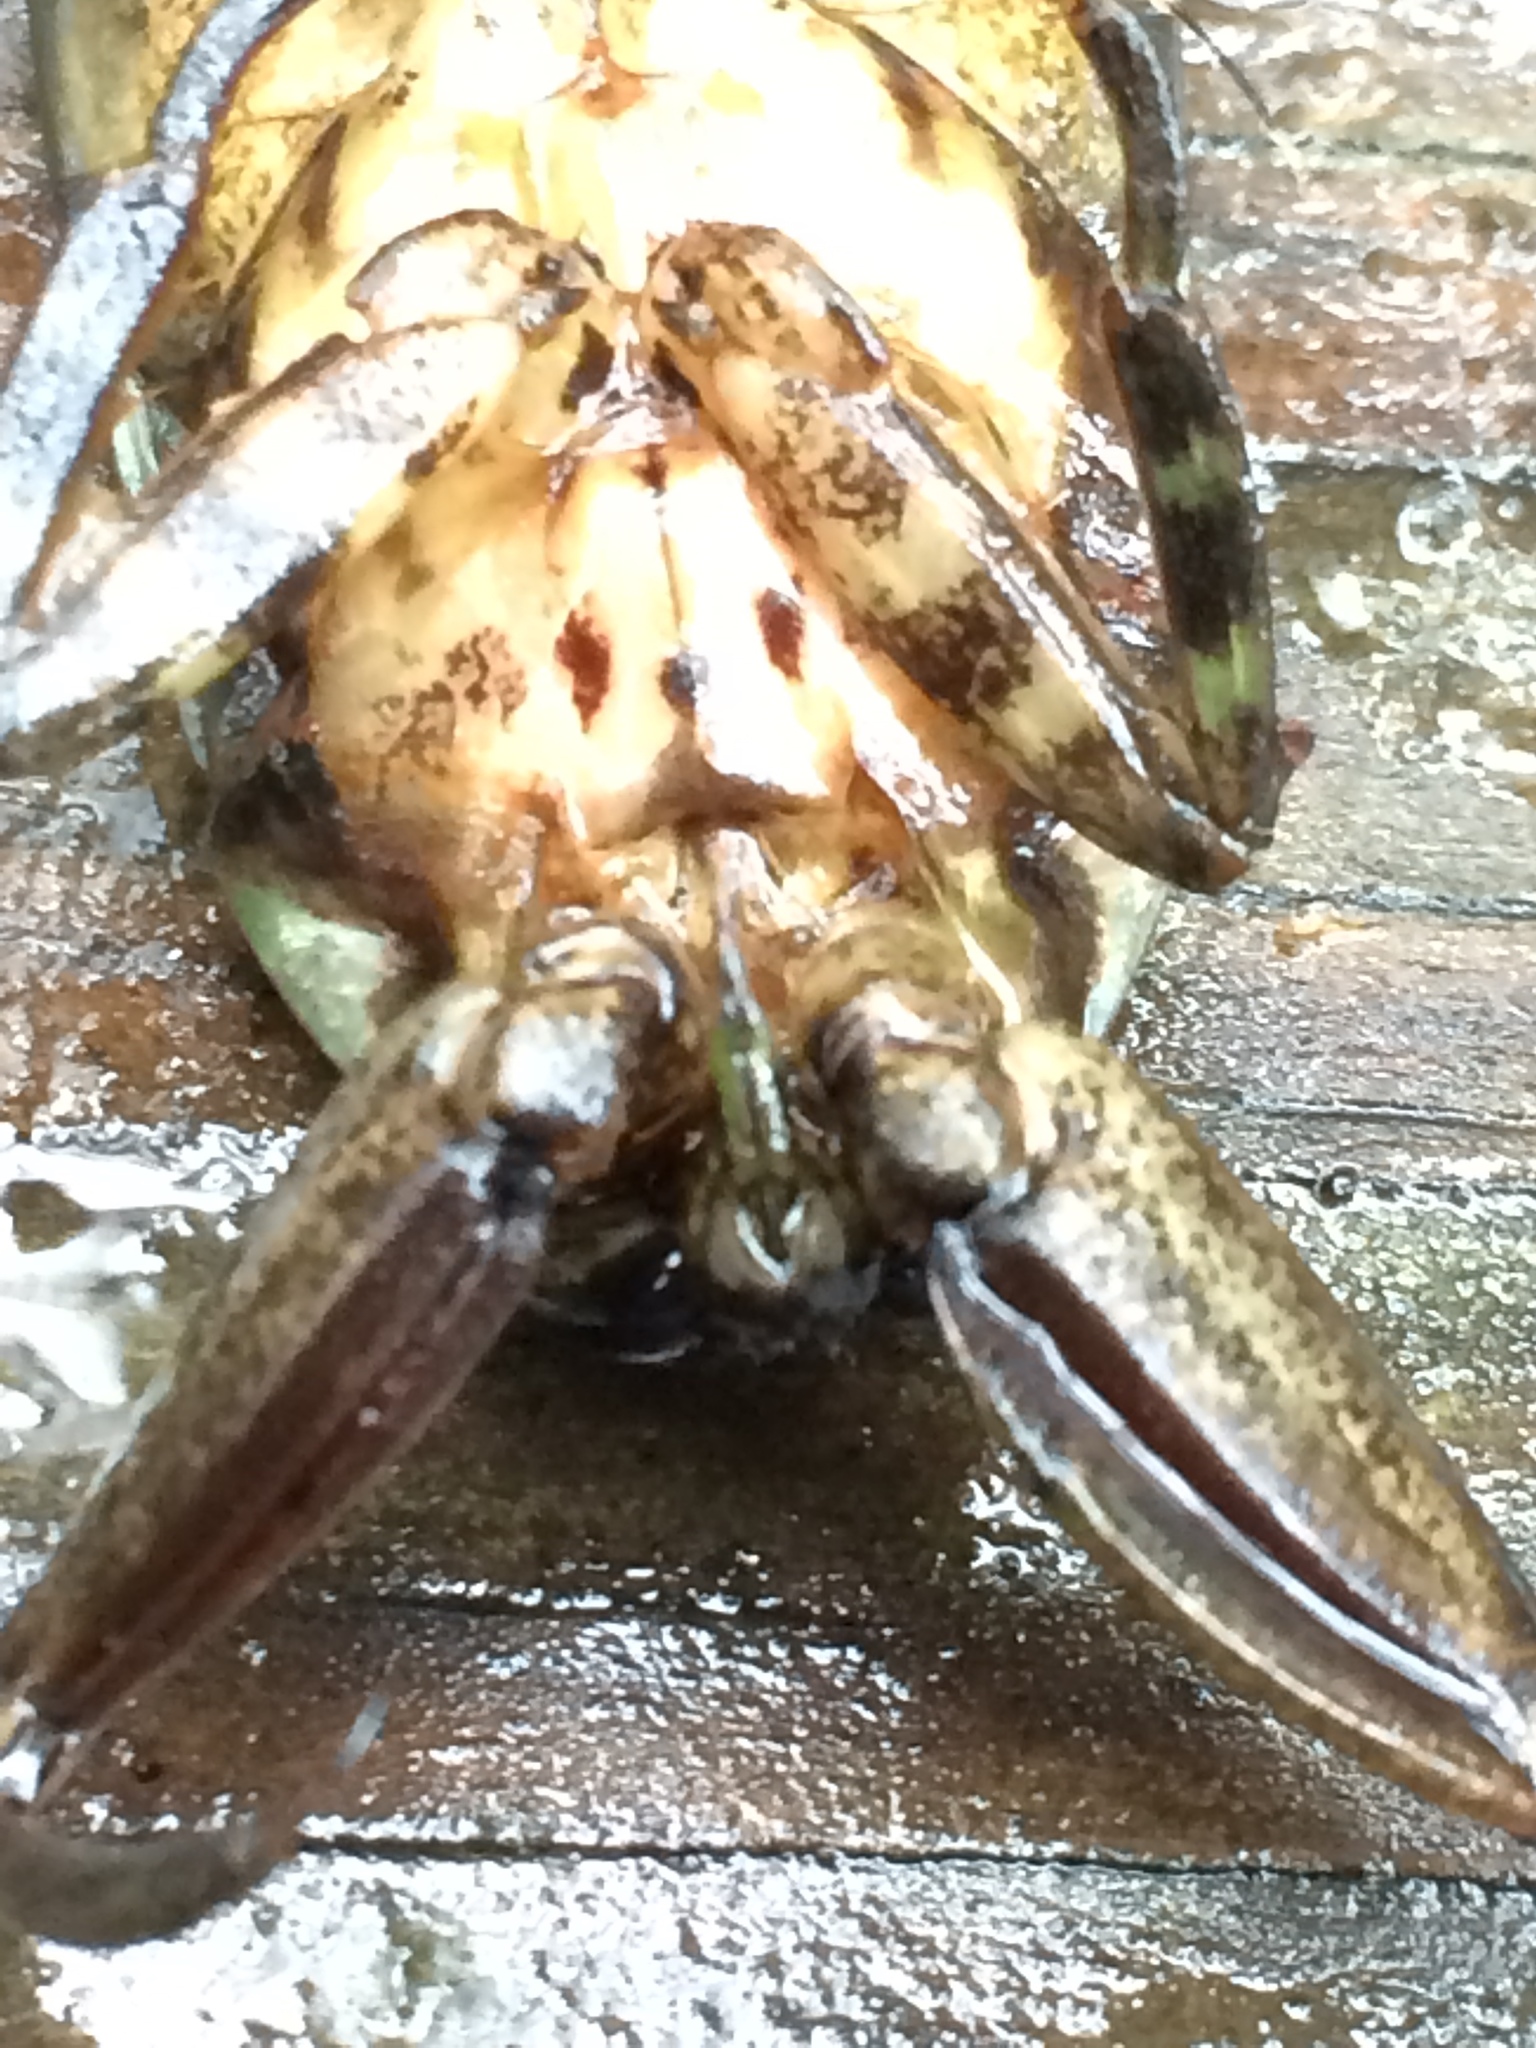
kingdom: Animalia
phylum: Arthropoda
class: Insecta
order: Hemiptera
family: Belostomatidae
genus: Lethocerus
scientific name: Lethocerus uhleri
